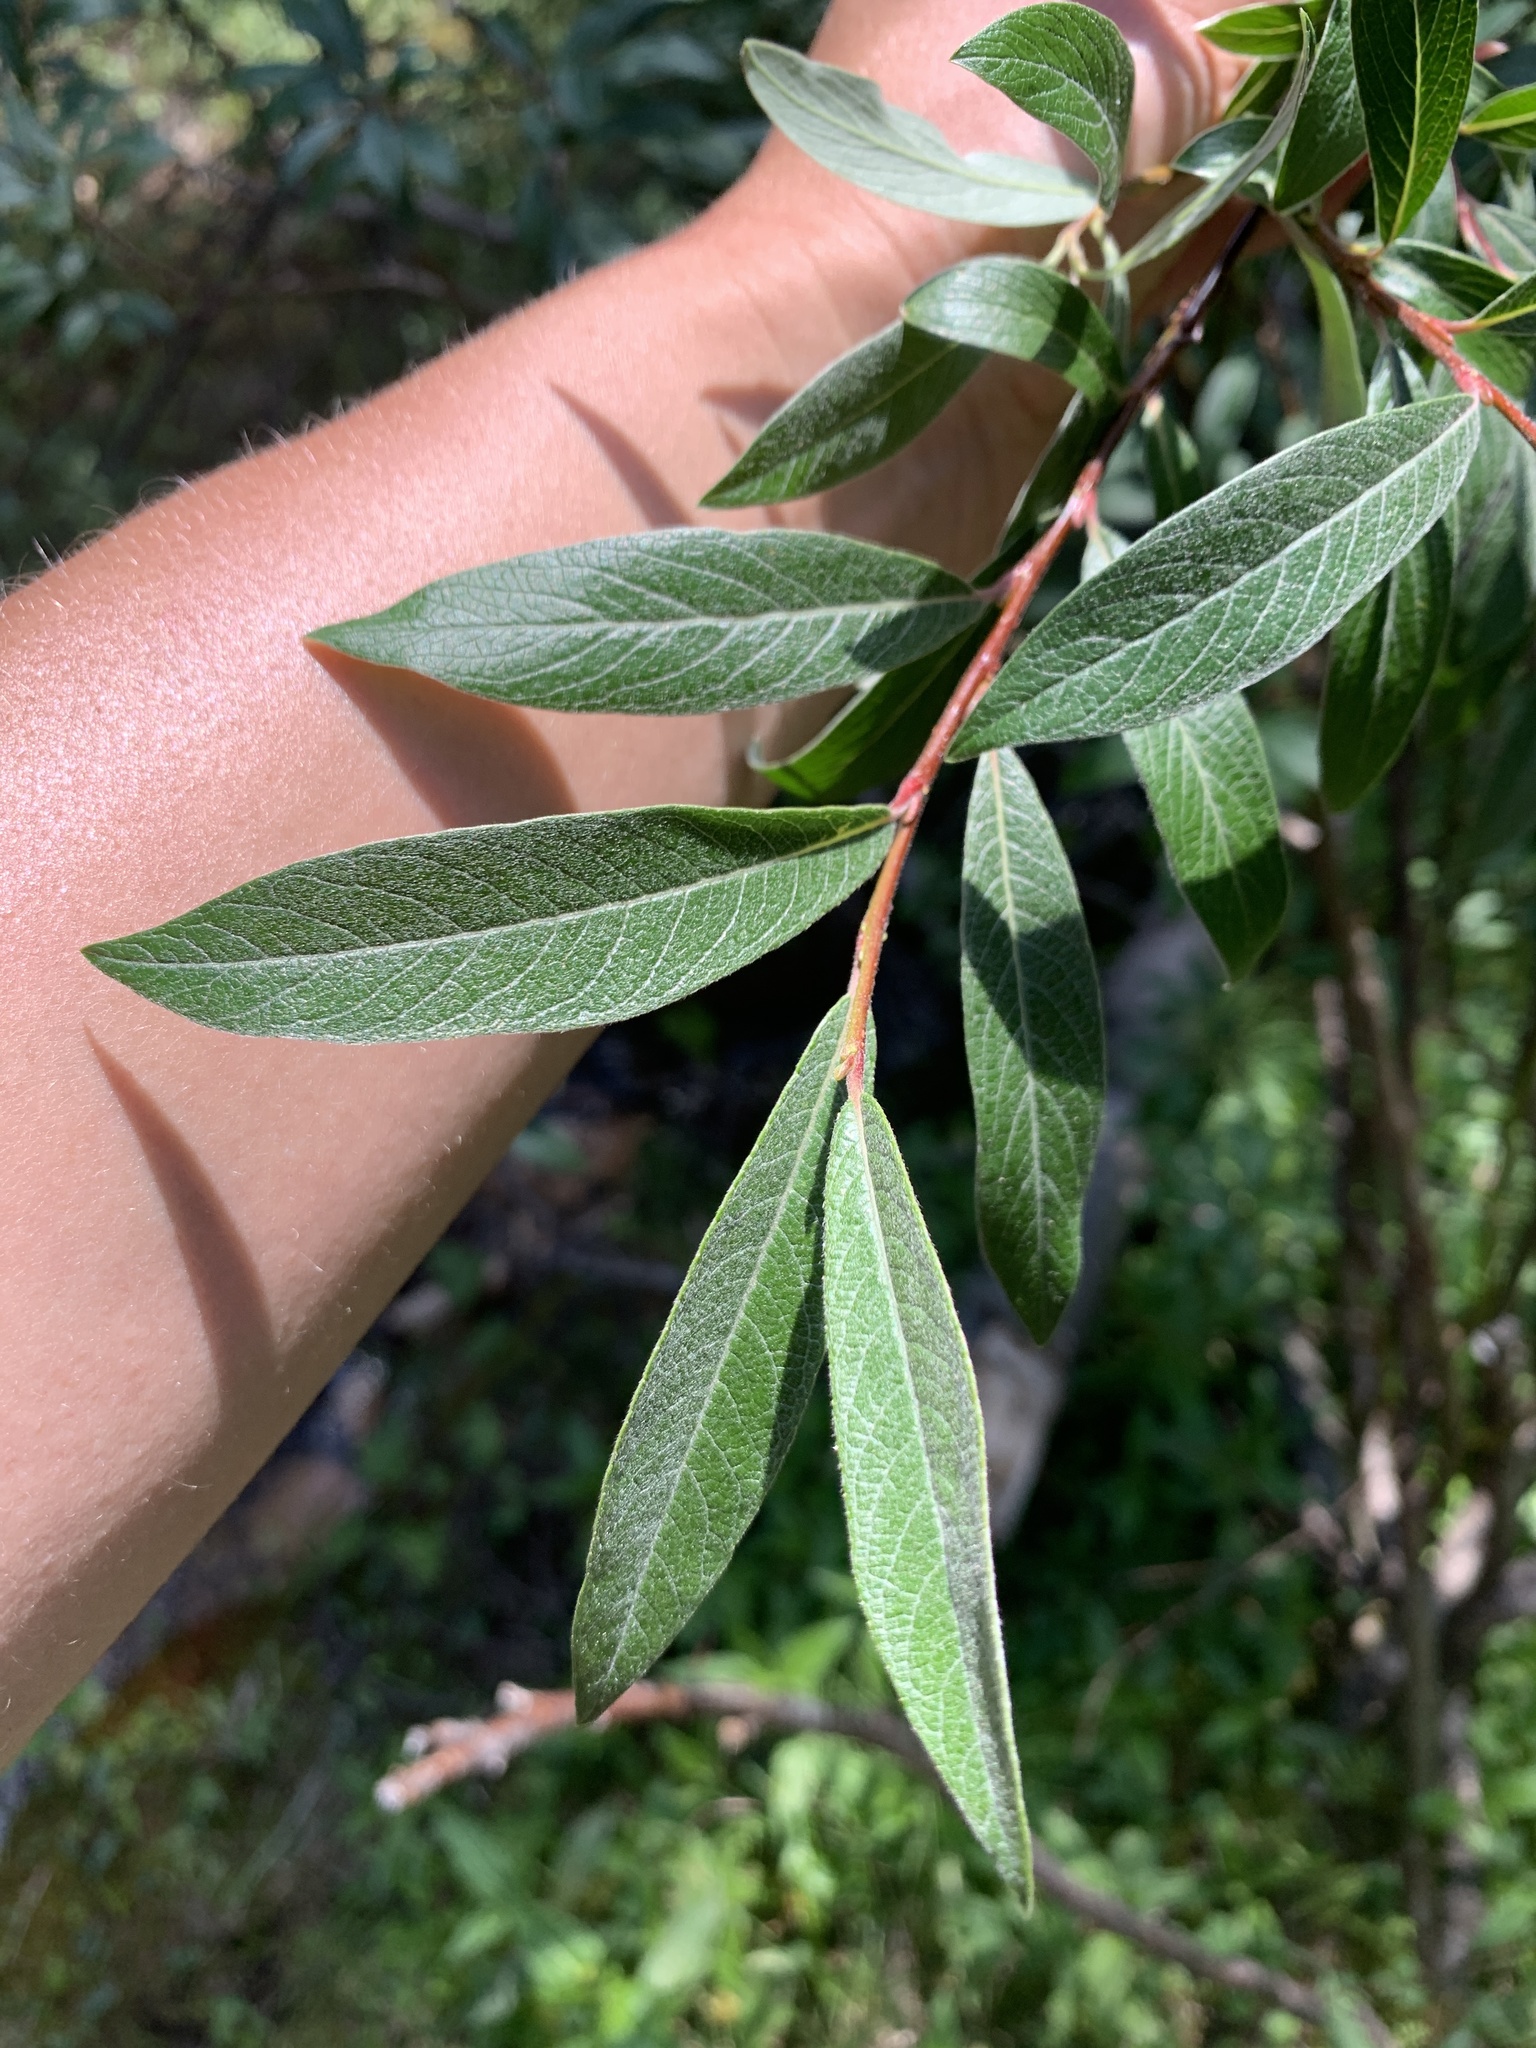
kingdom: Plantae
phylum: Tracheophyta
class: Magnoliopsida
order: Malpighiales
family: Salicaceae
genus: Salix
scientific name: Salix drummondiana
